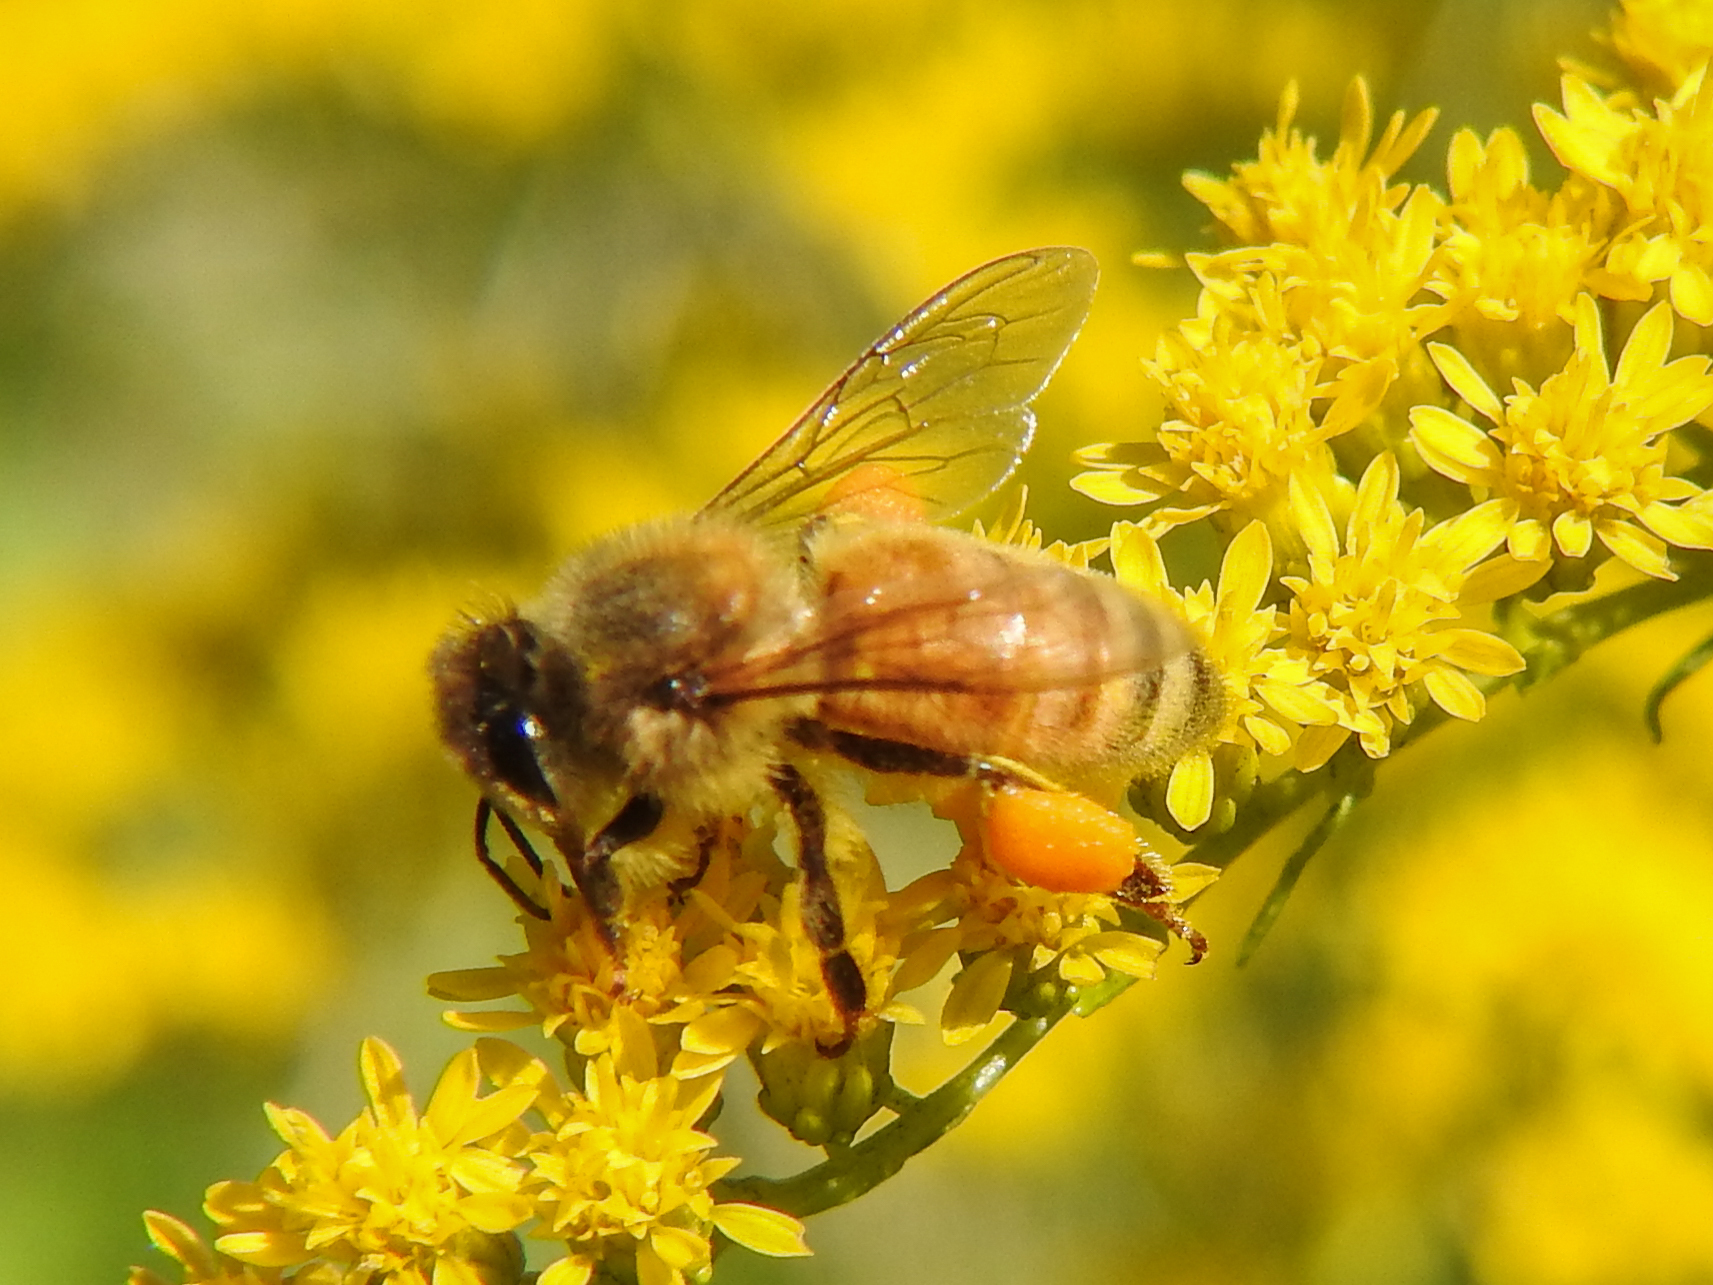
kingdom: Animalia
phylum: Arthropoda
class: Insecta
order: Hymenoptera
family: Apidae
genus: Apis
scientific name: Apis mellifera
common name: Honey bee
